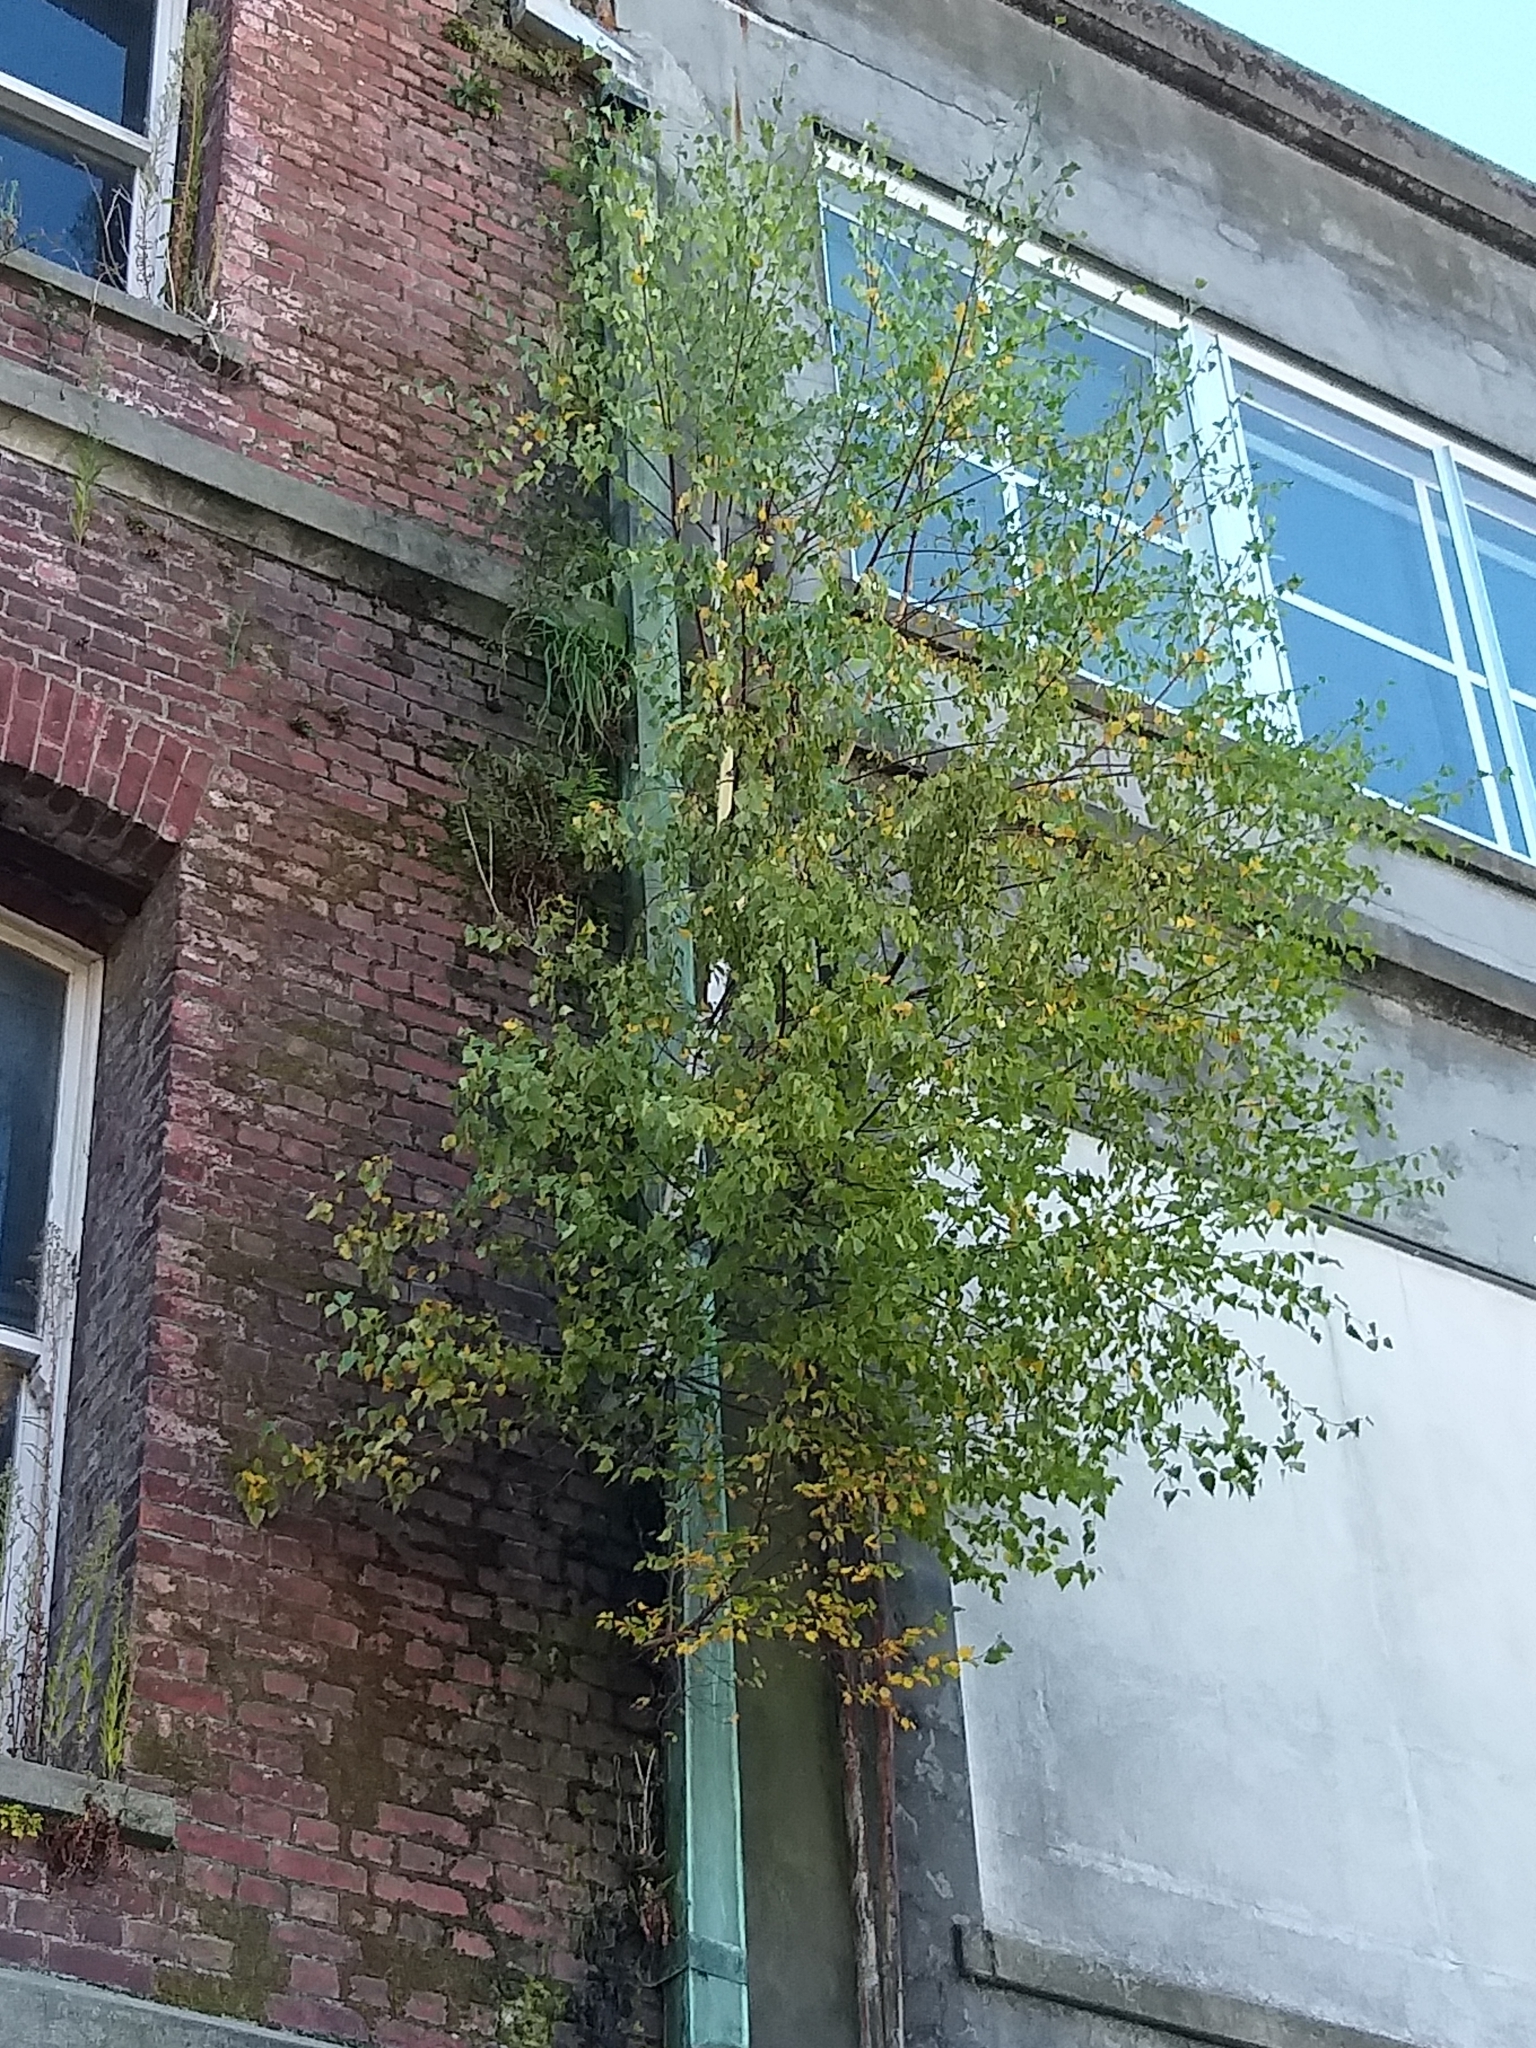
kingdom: Plantae
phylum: Tracheophyta
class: Magnoliopsida
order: Fagales
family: Betulaceae
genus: Betula
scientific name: Betula pendula
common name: Silver birch
